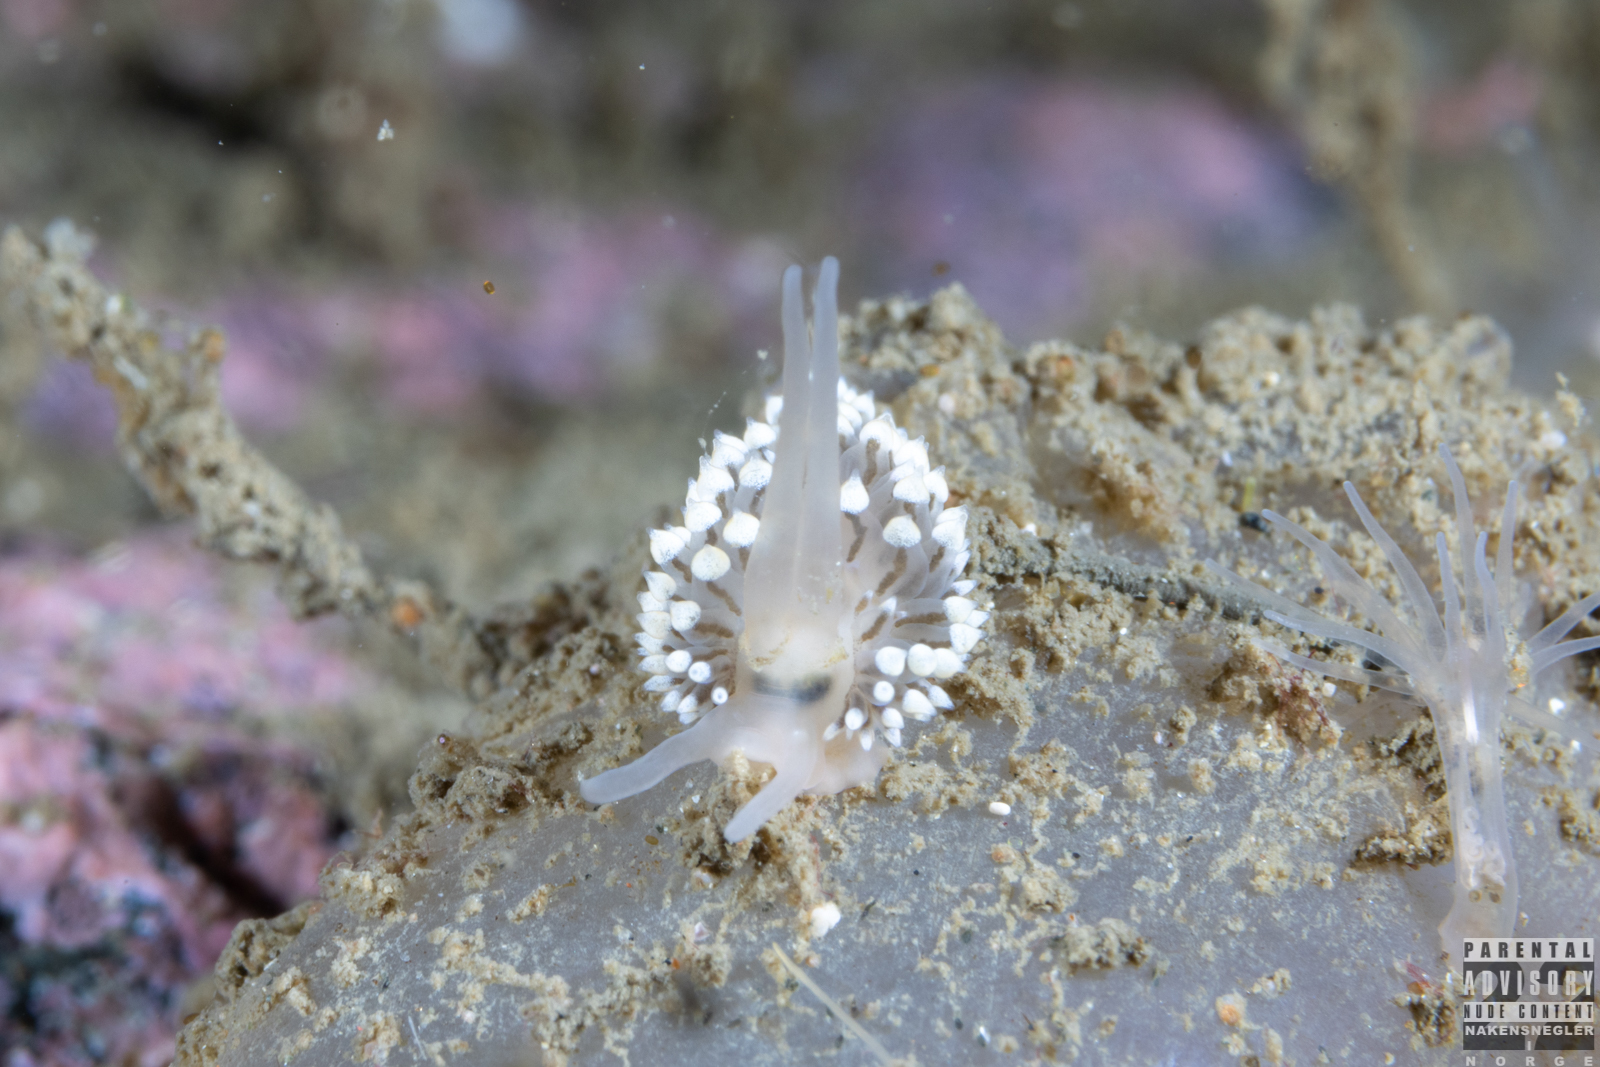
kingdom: Animalia
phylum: Mollusca
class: Gastropoda
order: Nudibranchia
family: Eubranchidae
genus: Eubranchus
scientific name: Eubranchus tricolor
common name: Painted balloon aeolis
